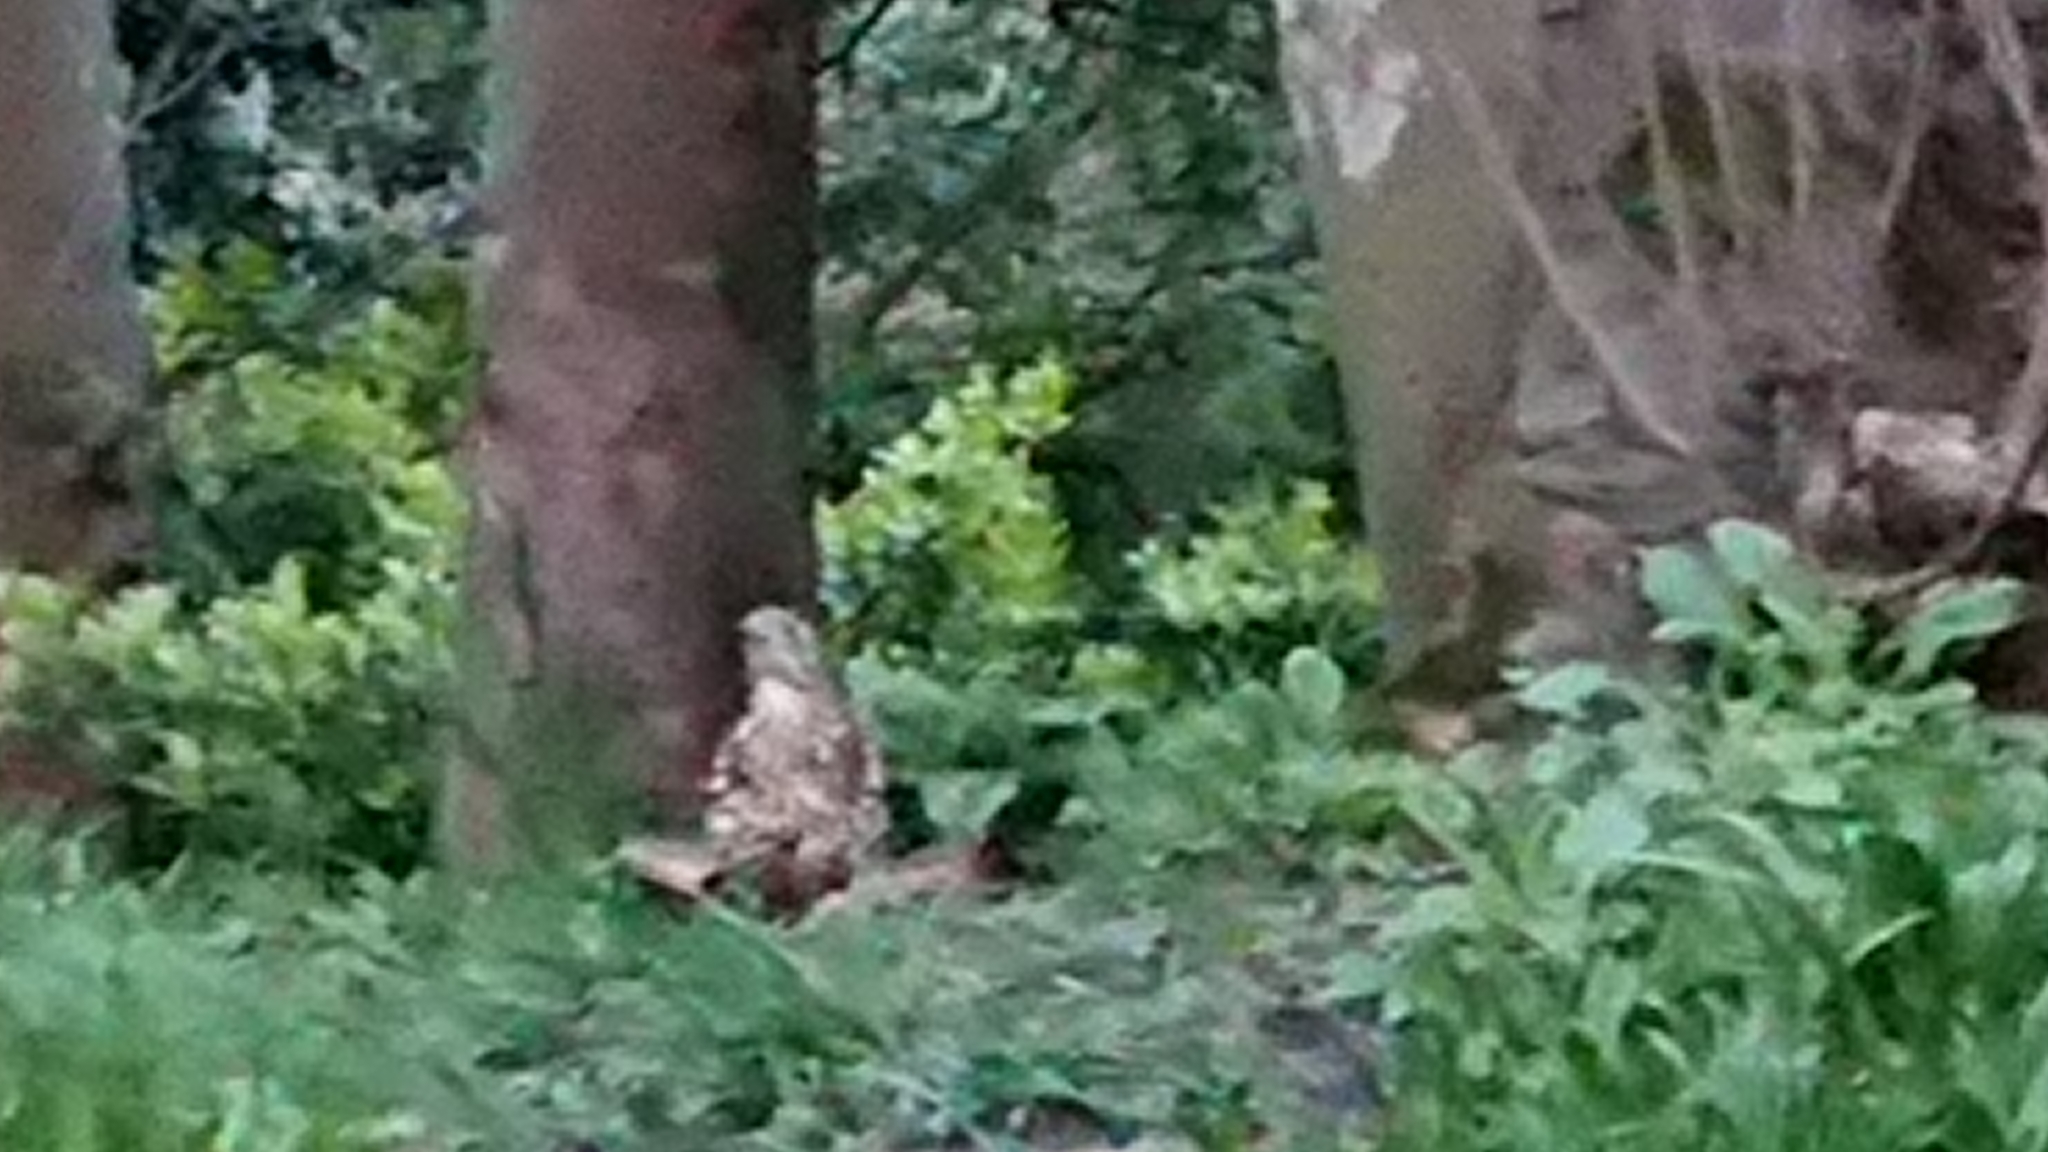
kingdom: Animalia
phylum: Chordata
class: Aves
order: Passeriformes
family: Turdidae
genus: Turdus
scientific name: Turdus viscivorus
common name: Mistle thrush
